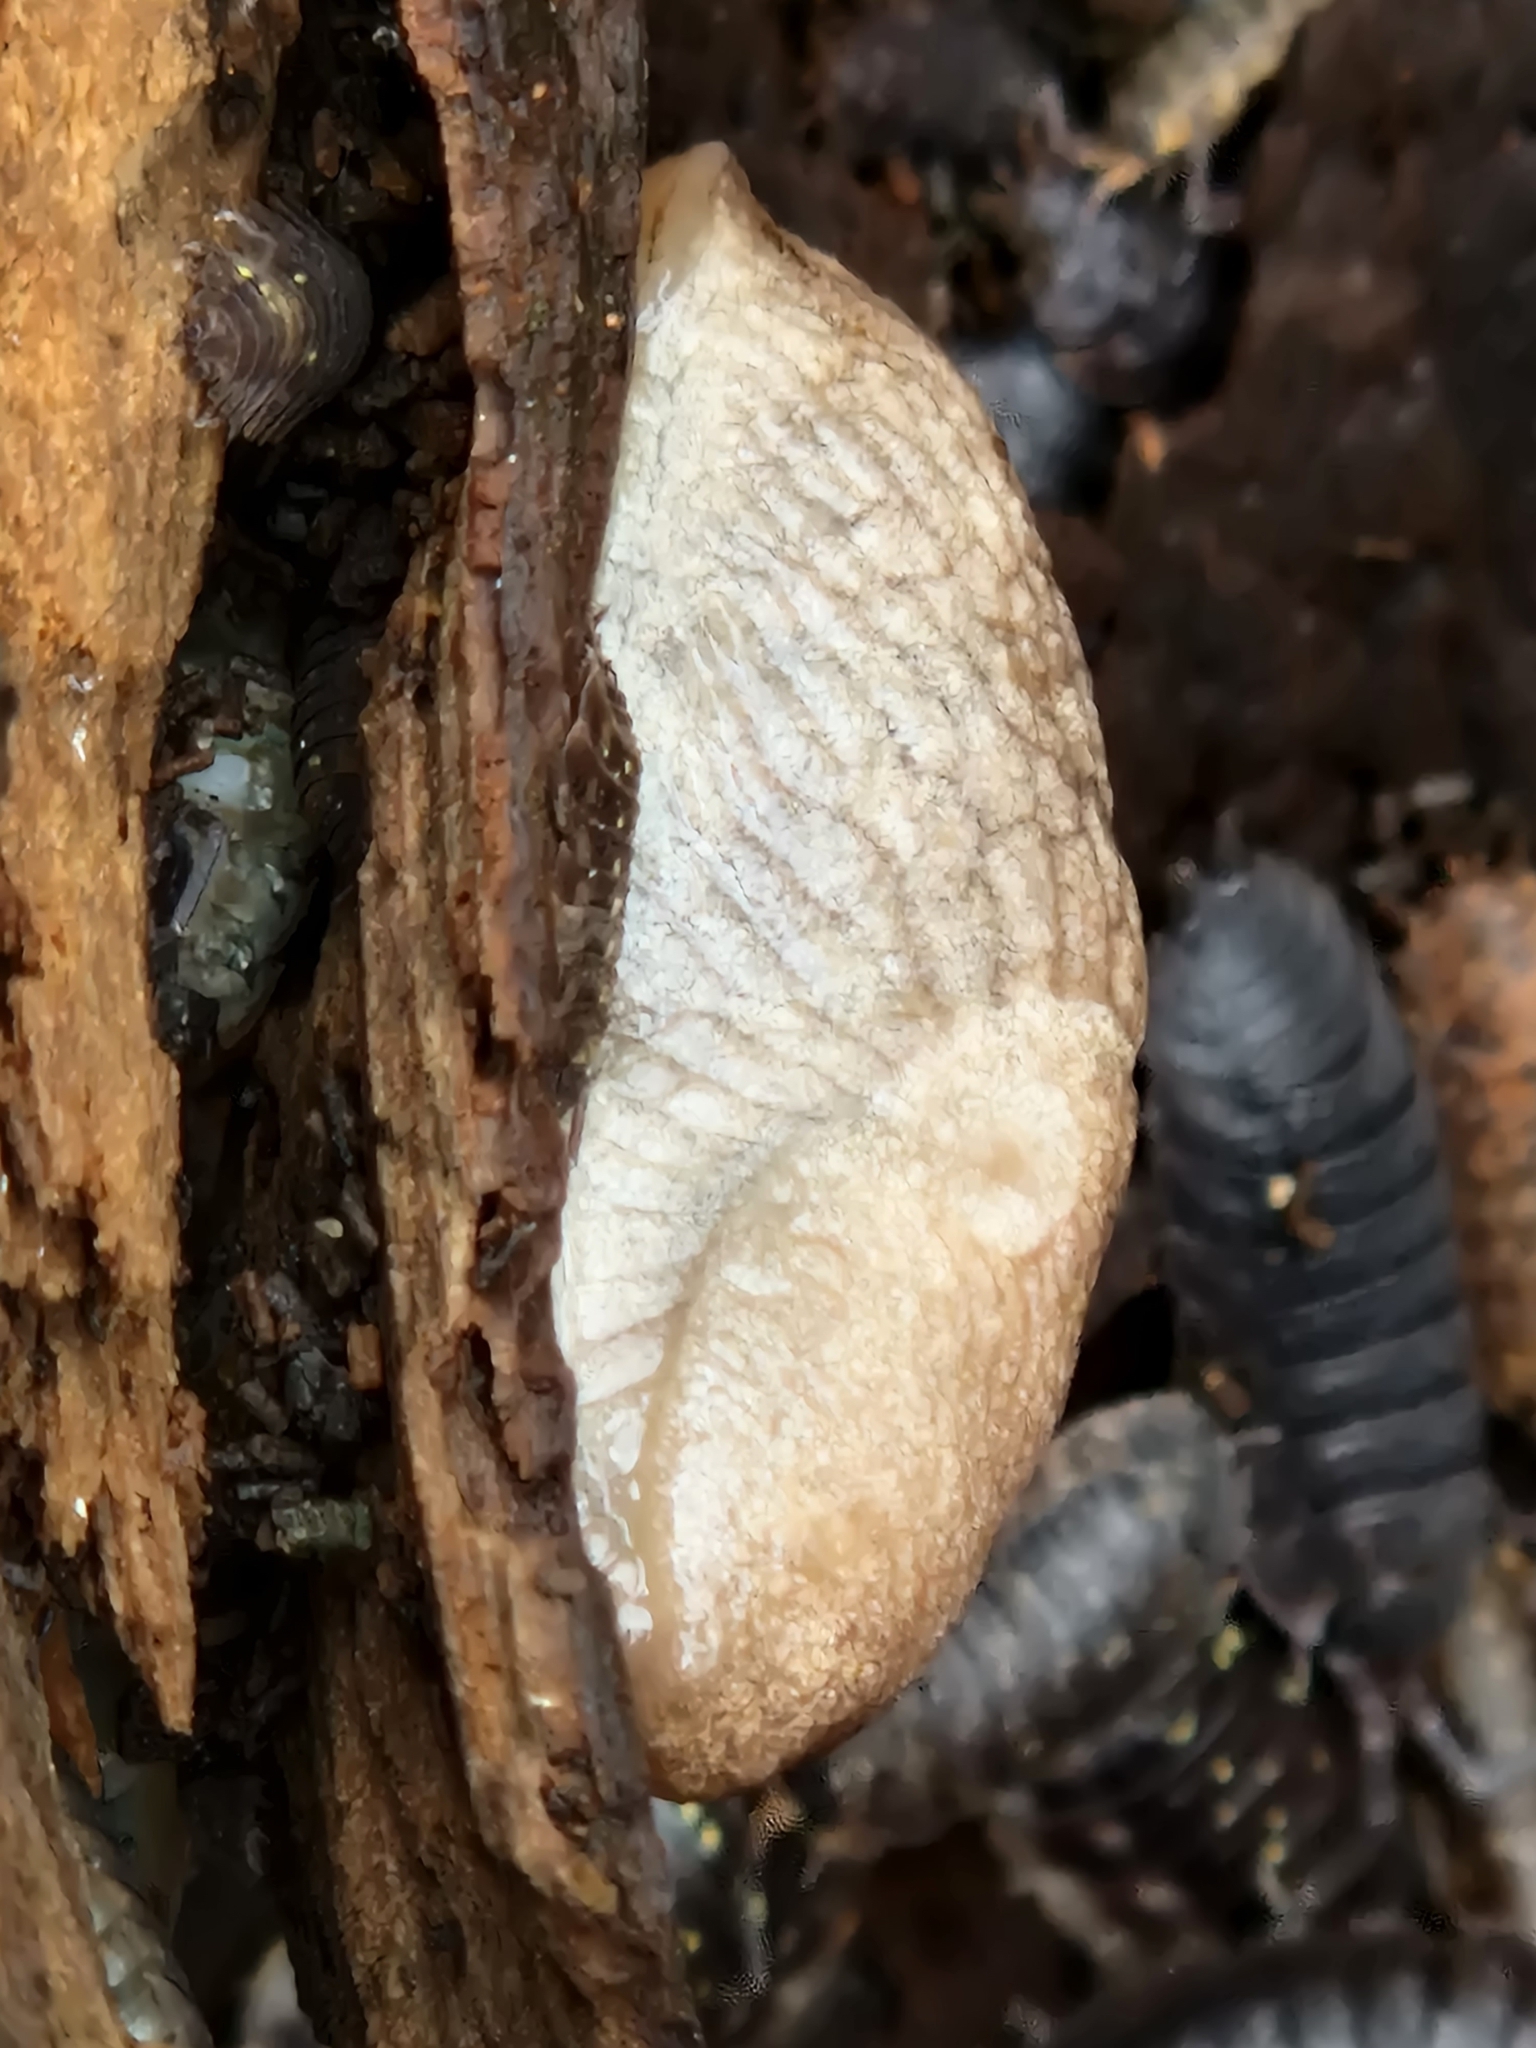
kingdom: Animalia
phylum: Mollusca
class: Gastropoda
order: Stylommatophora
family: Agriolimacidae
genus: Deroceras
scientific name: Deroceras reticulatum
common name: Gray field slug
